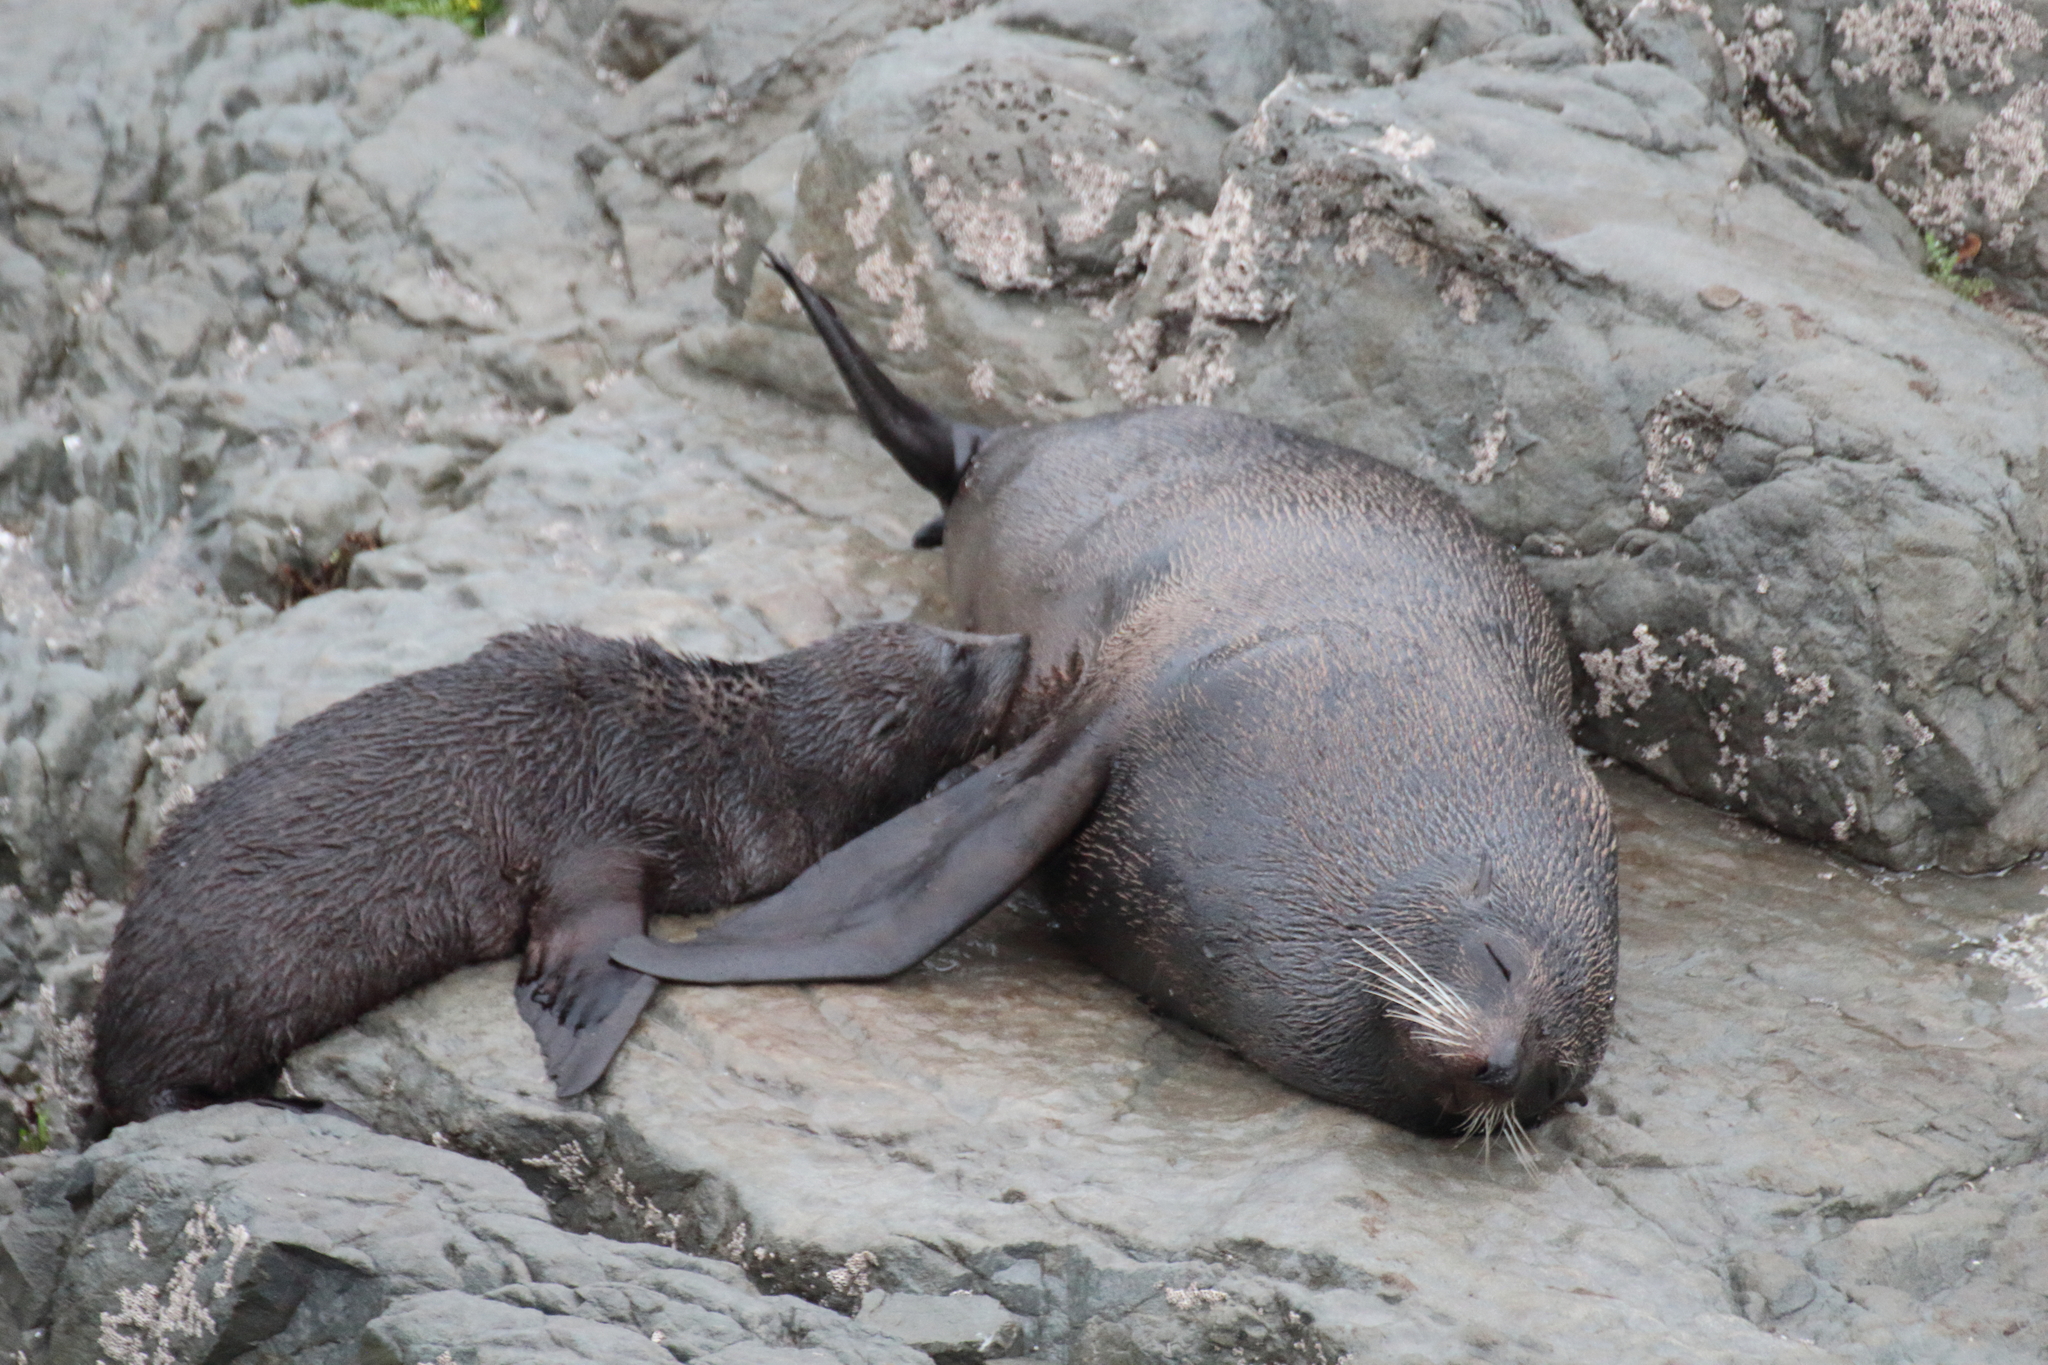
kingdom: Animalia
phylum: Chordata
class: Mammalia
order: Carnivora
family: Otariidae
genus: Arctocephalus
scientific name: Arctocephalus forsteri
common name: New zealand fur seal
